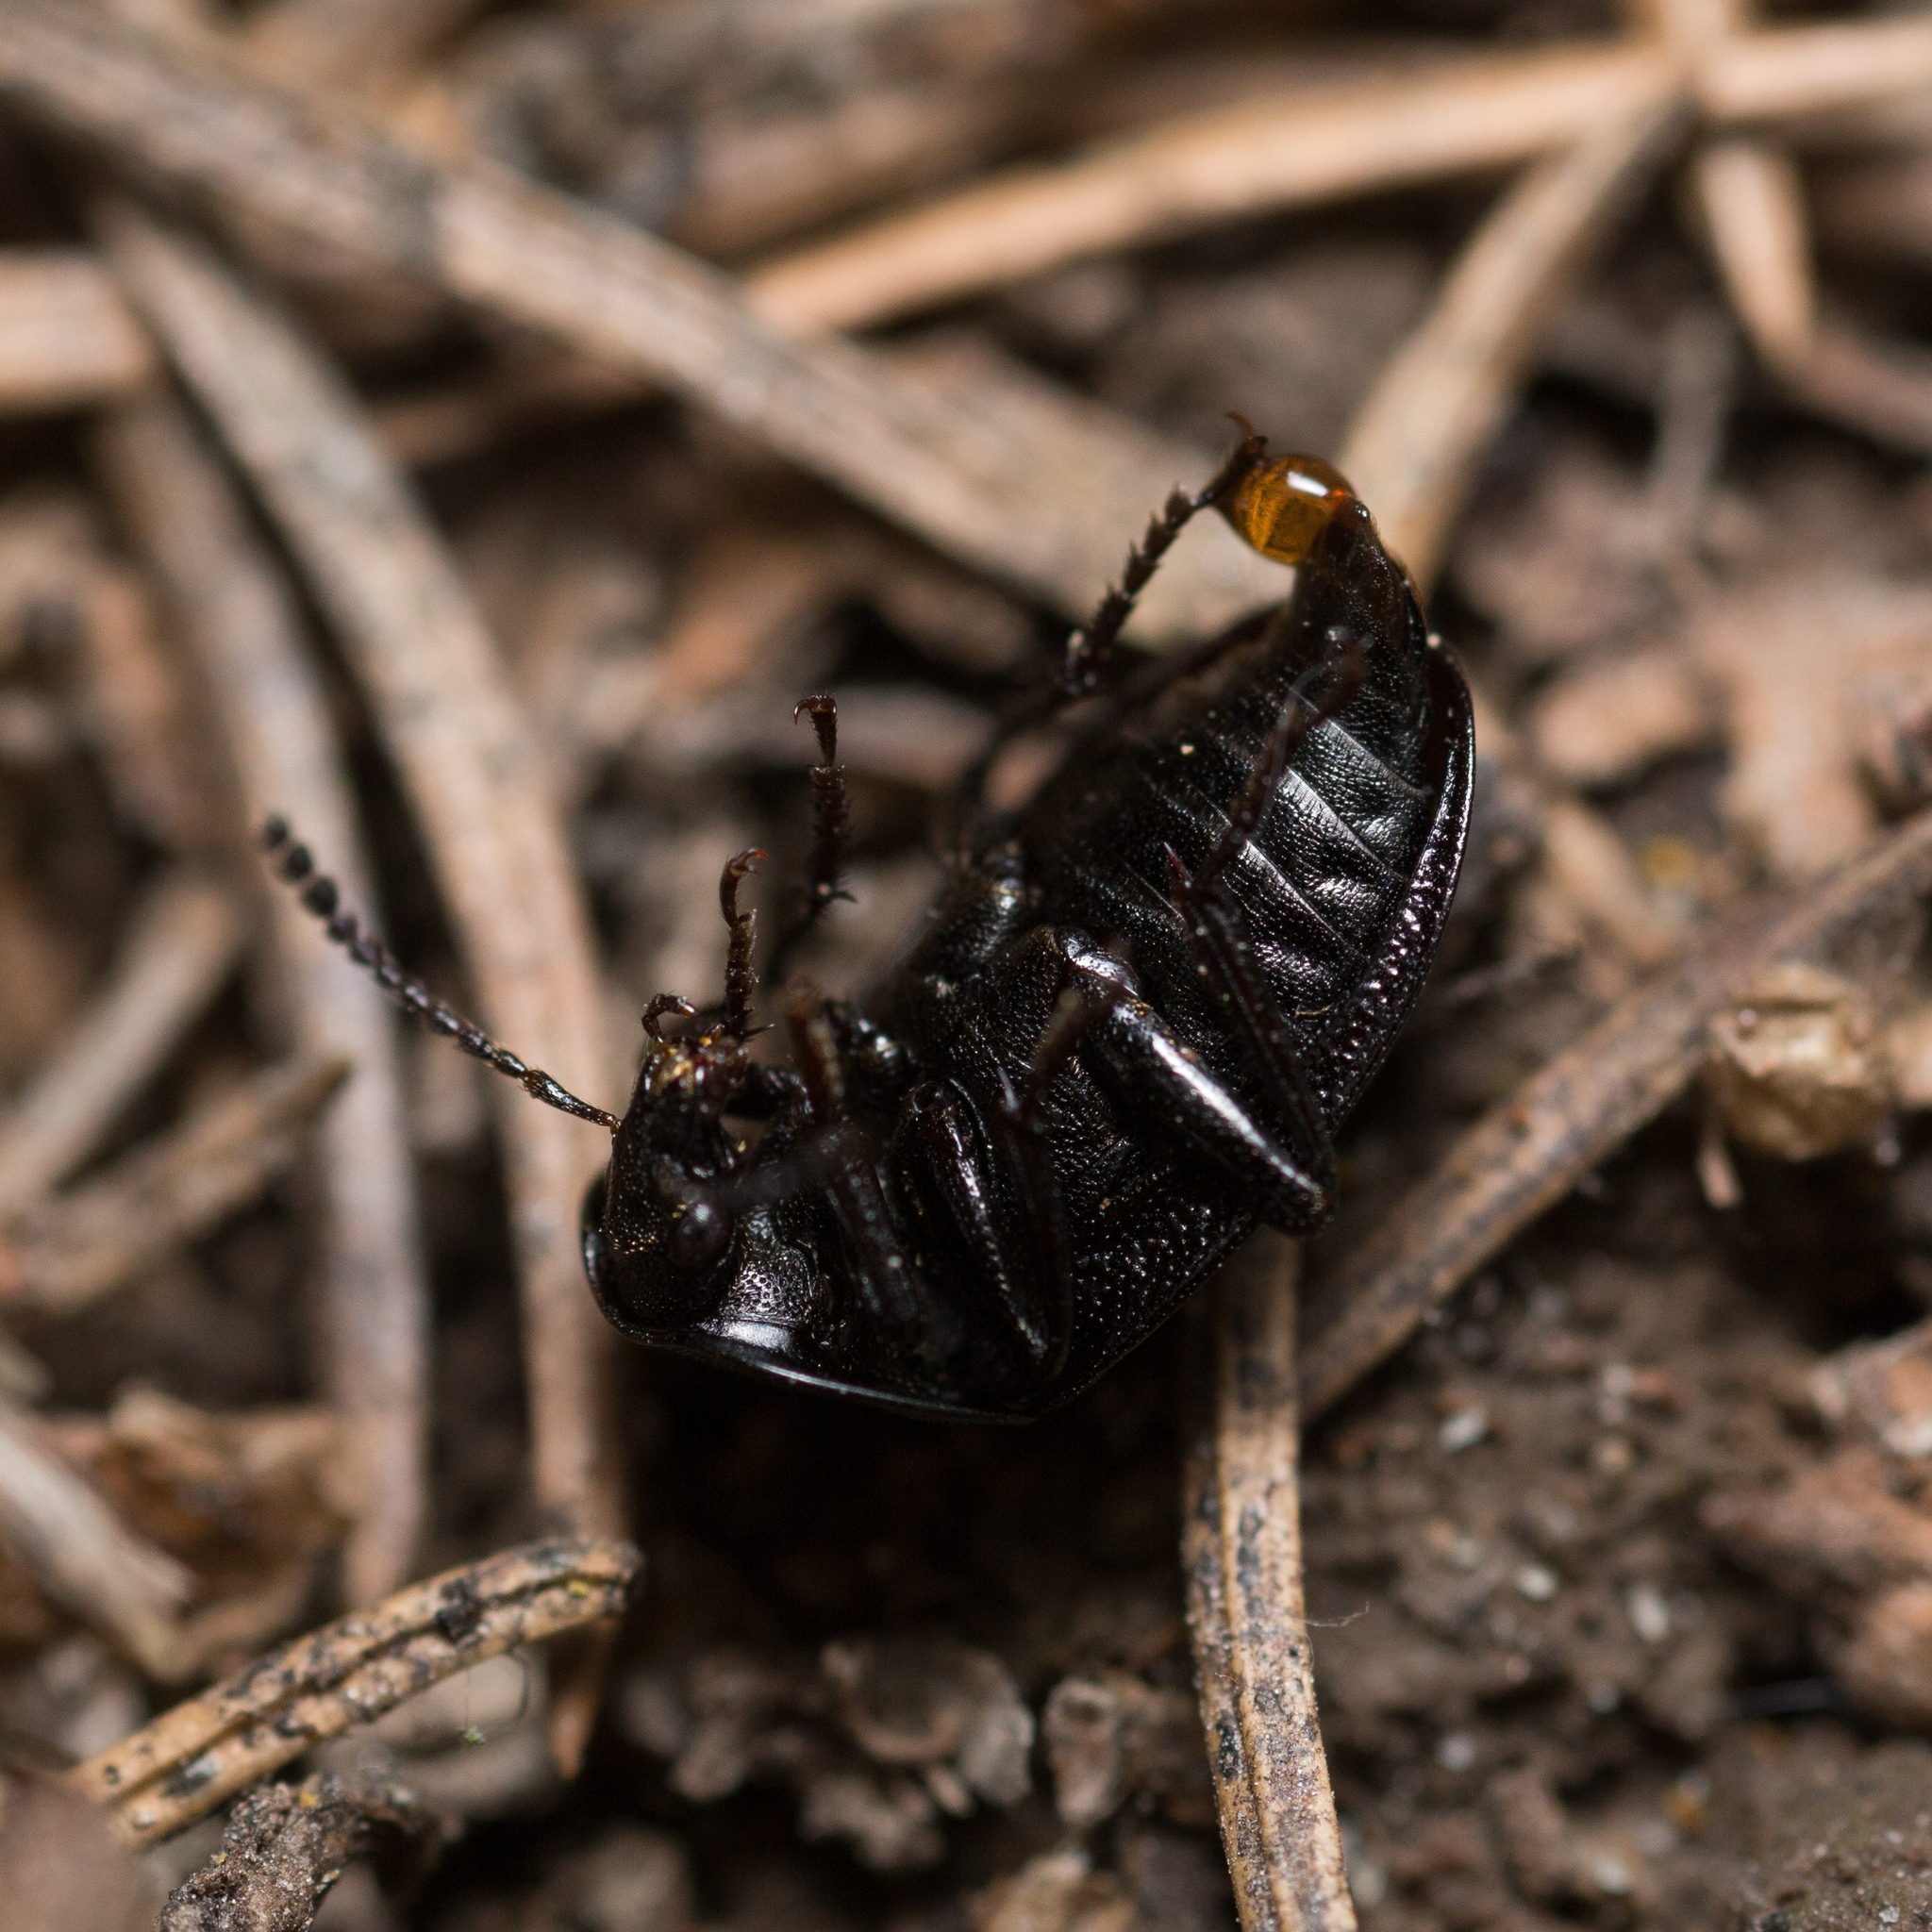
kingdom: Animalia
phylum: Arthropoda
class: Insecta
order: Coleoptera
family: Staphylinidae
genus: Silpha
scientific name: Silpha atrata
